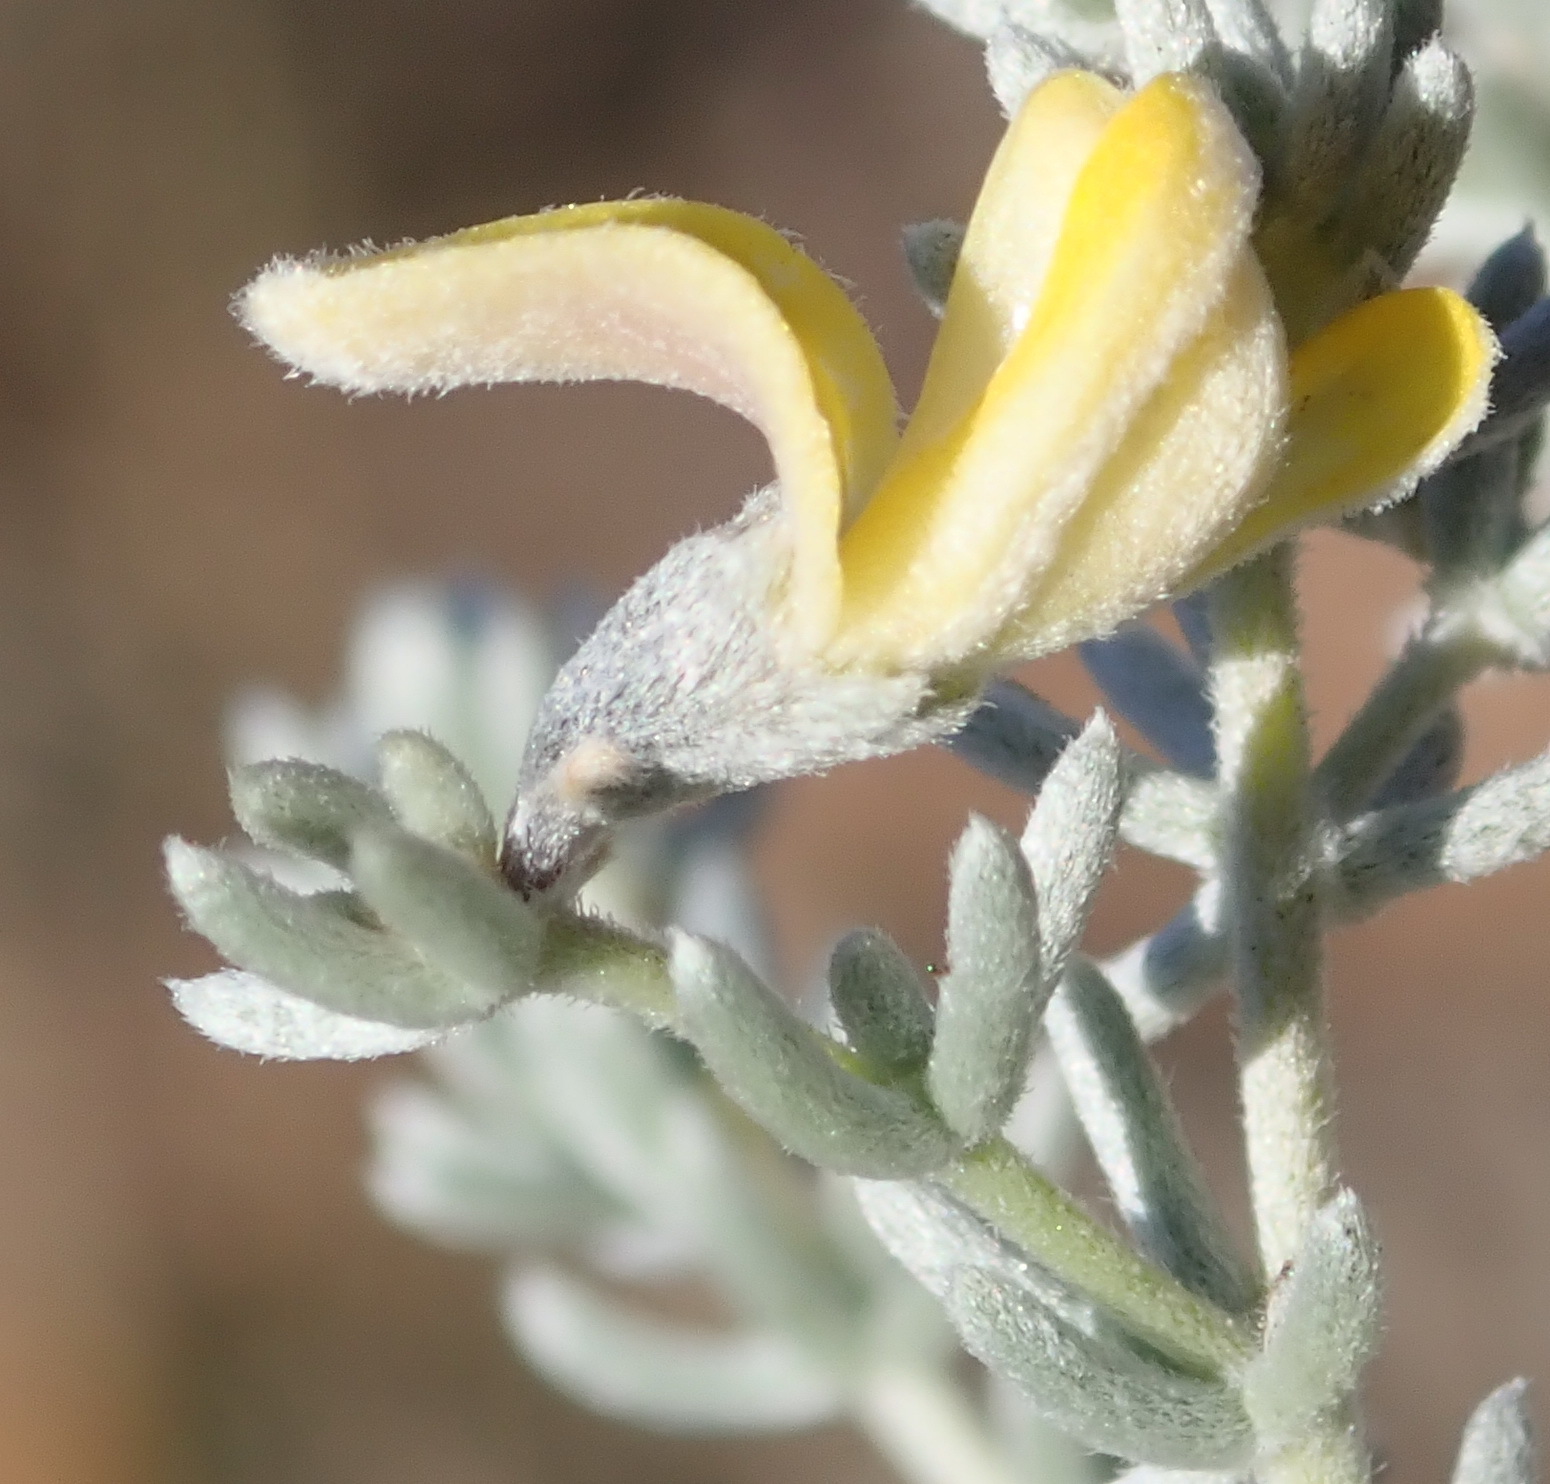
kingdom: Plantae
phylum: Tracheophyta
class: Magnoliopsida
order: Fabales
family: Fabaceae
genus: Aspalathus
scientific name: Aspalathus pedunculata
